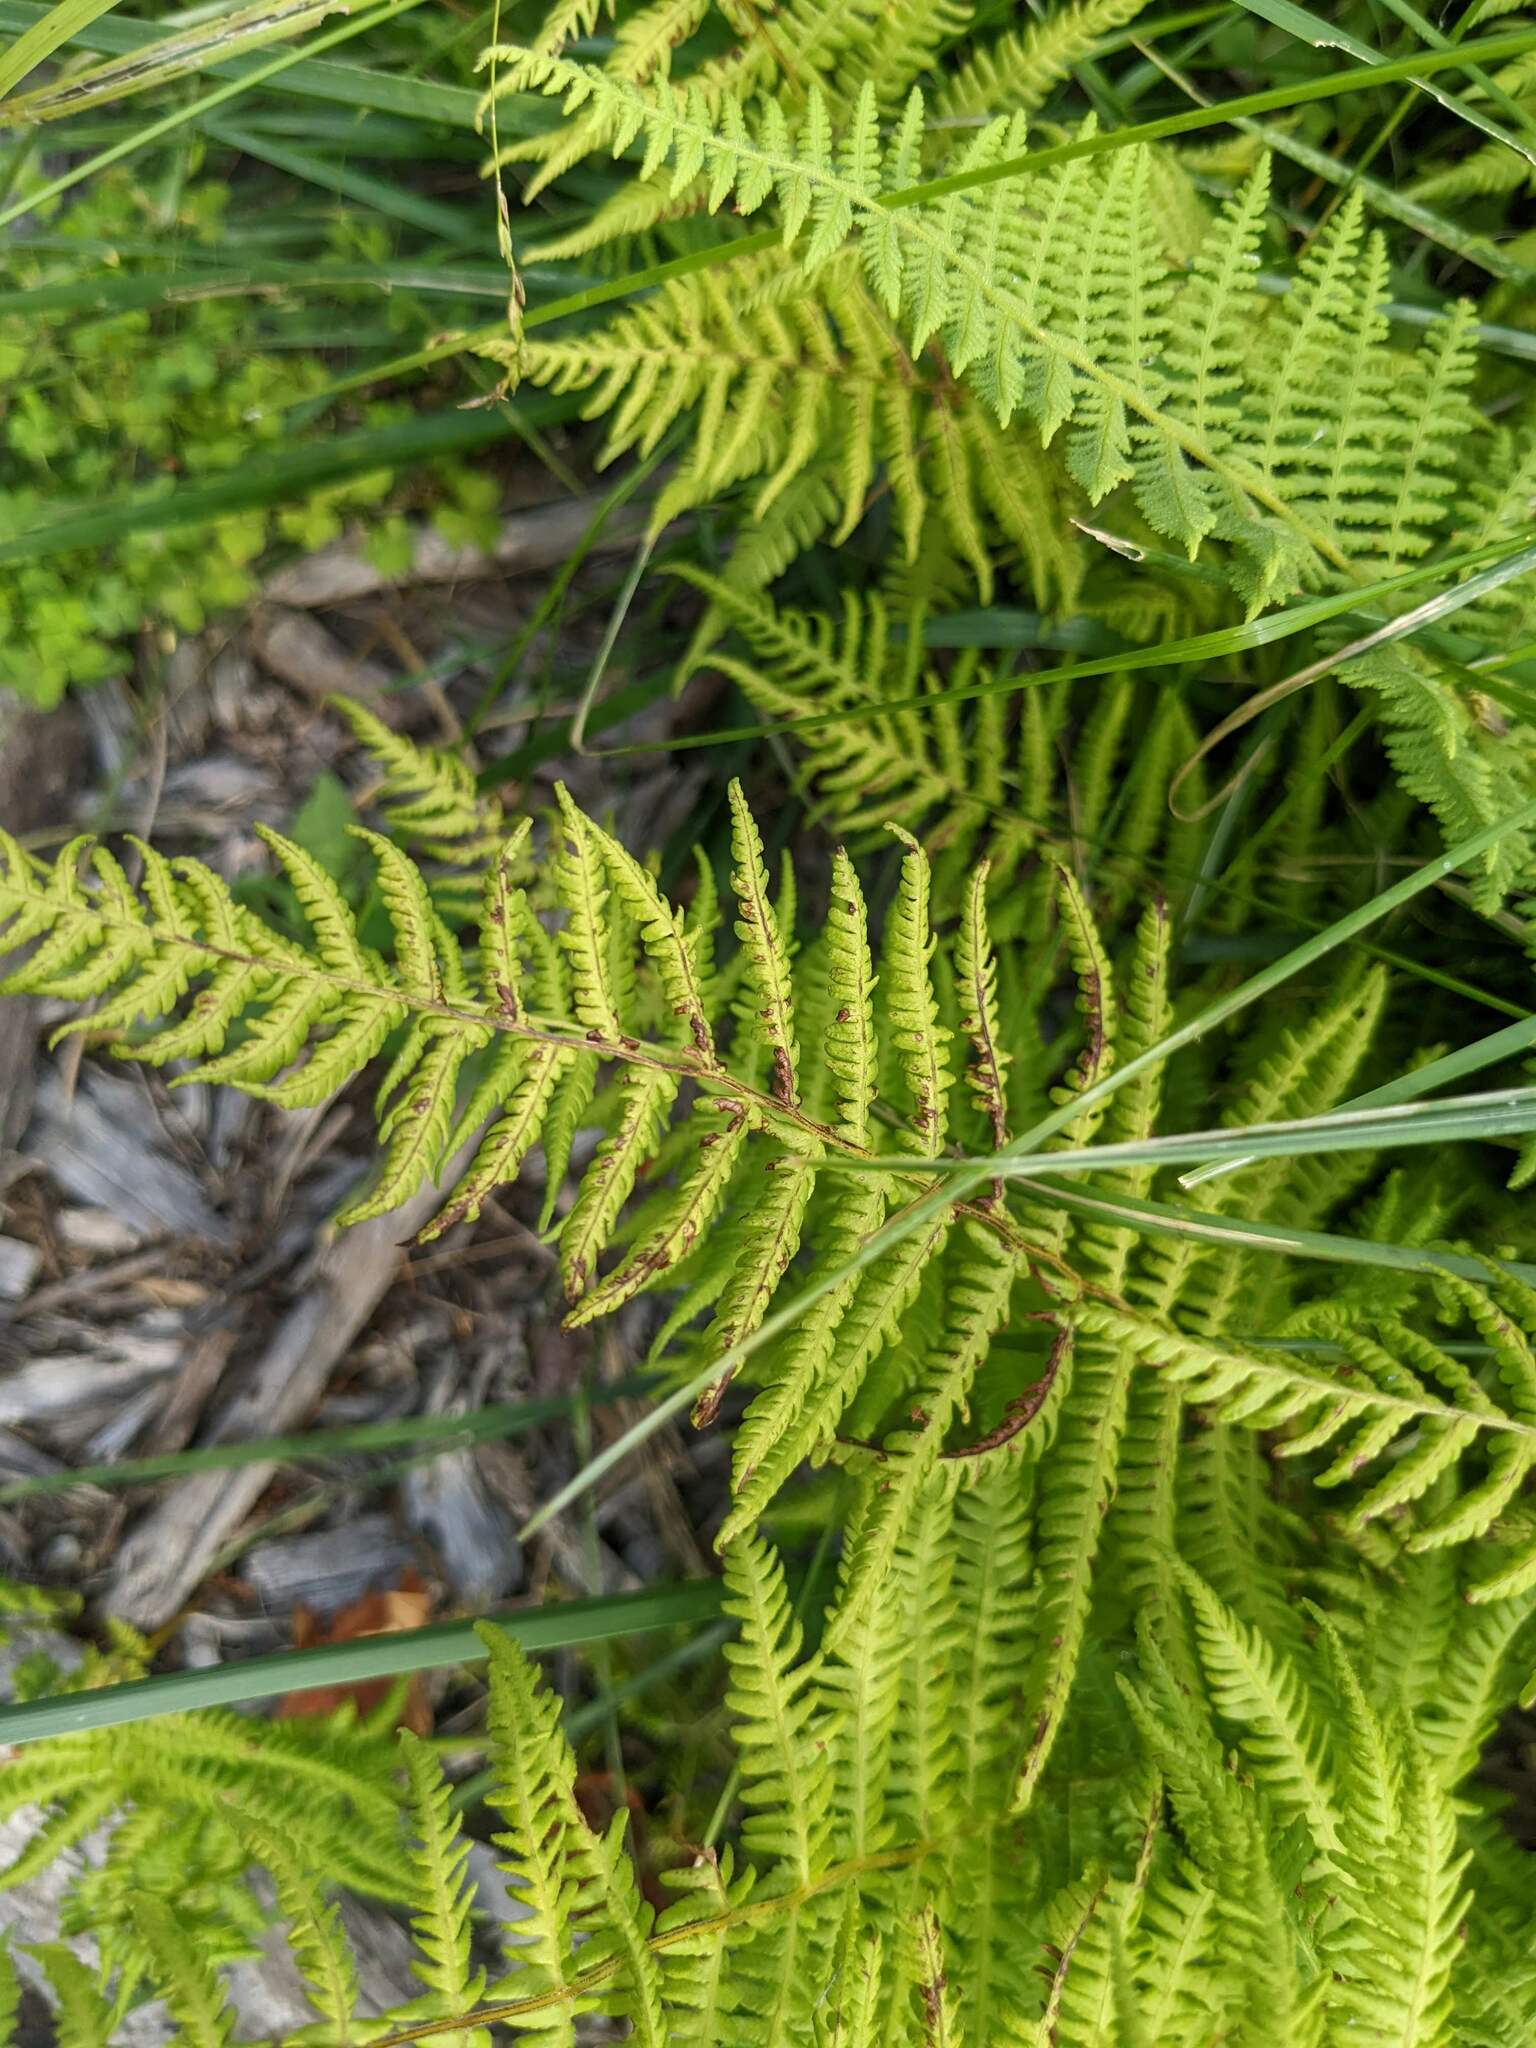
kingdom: Plantae
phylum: Tracheophyta
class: Polypodiopsida
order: Polypodiales
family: Thelypteridaceae
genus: Thelypteris
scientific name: Thelypteris palustris
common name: Marsh fern
